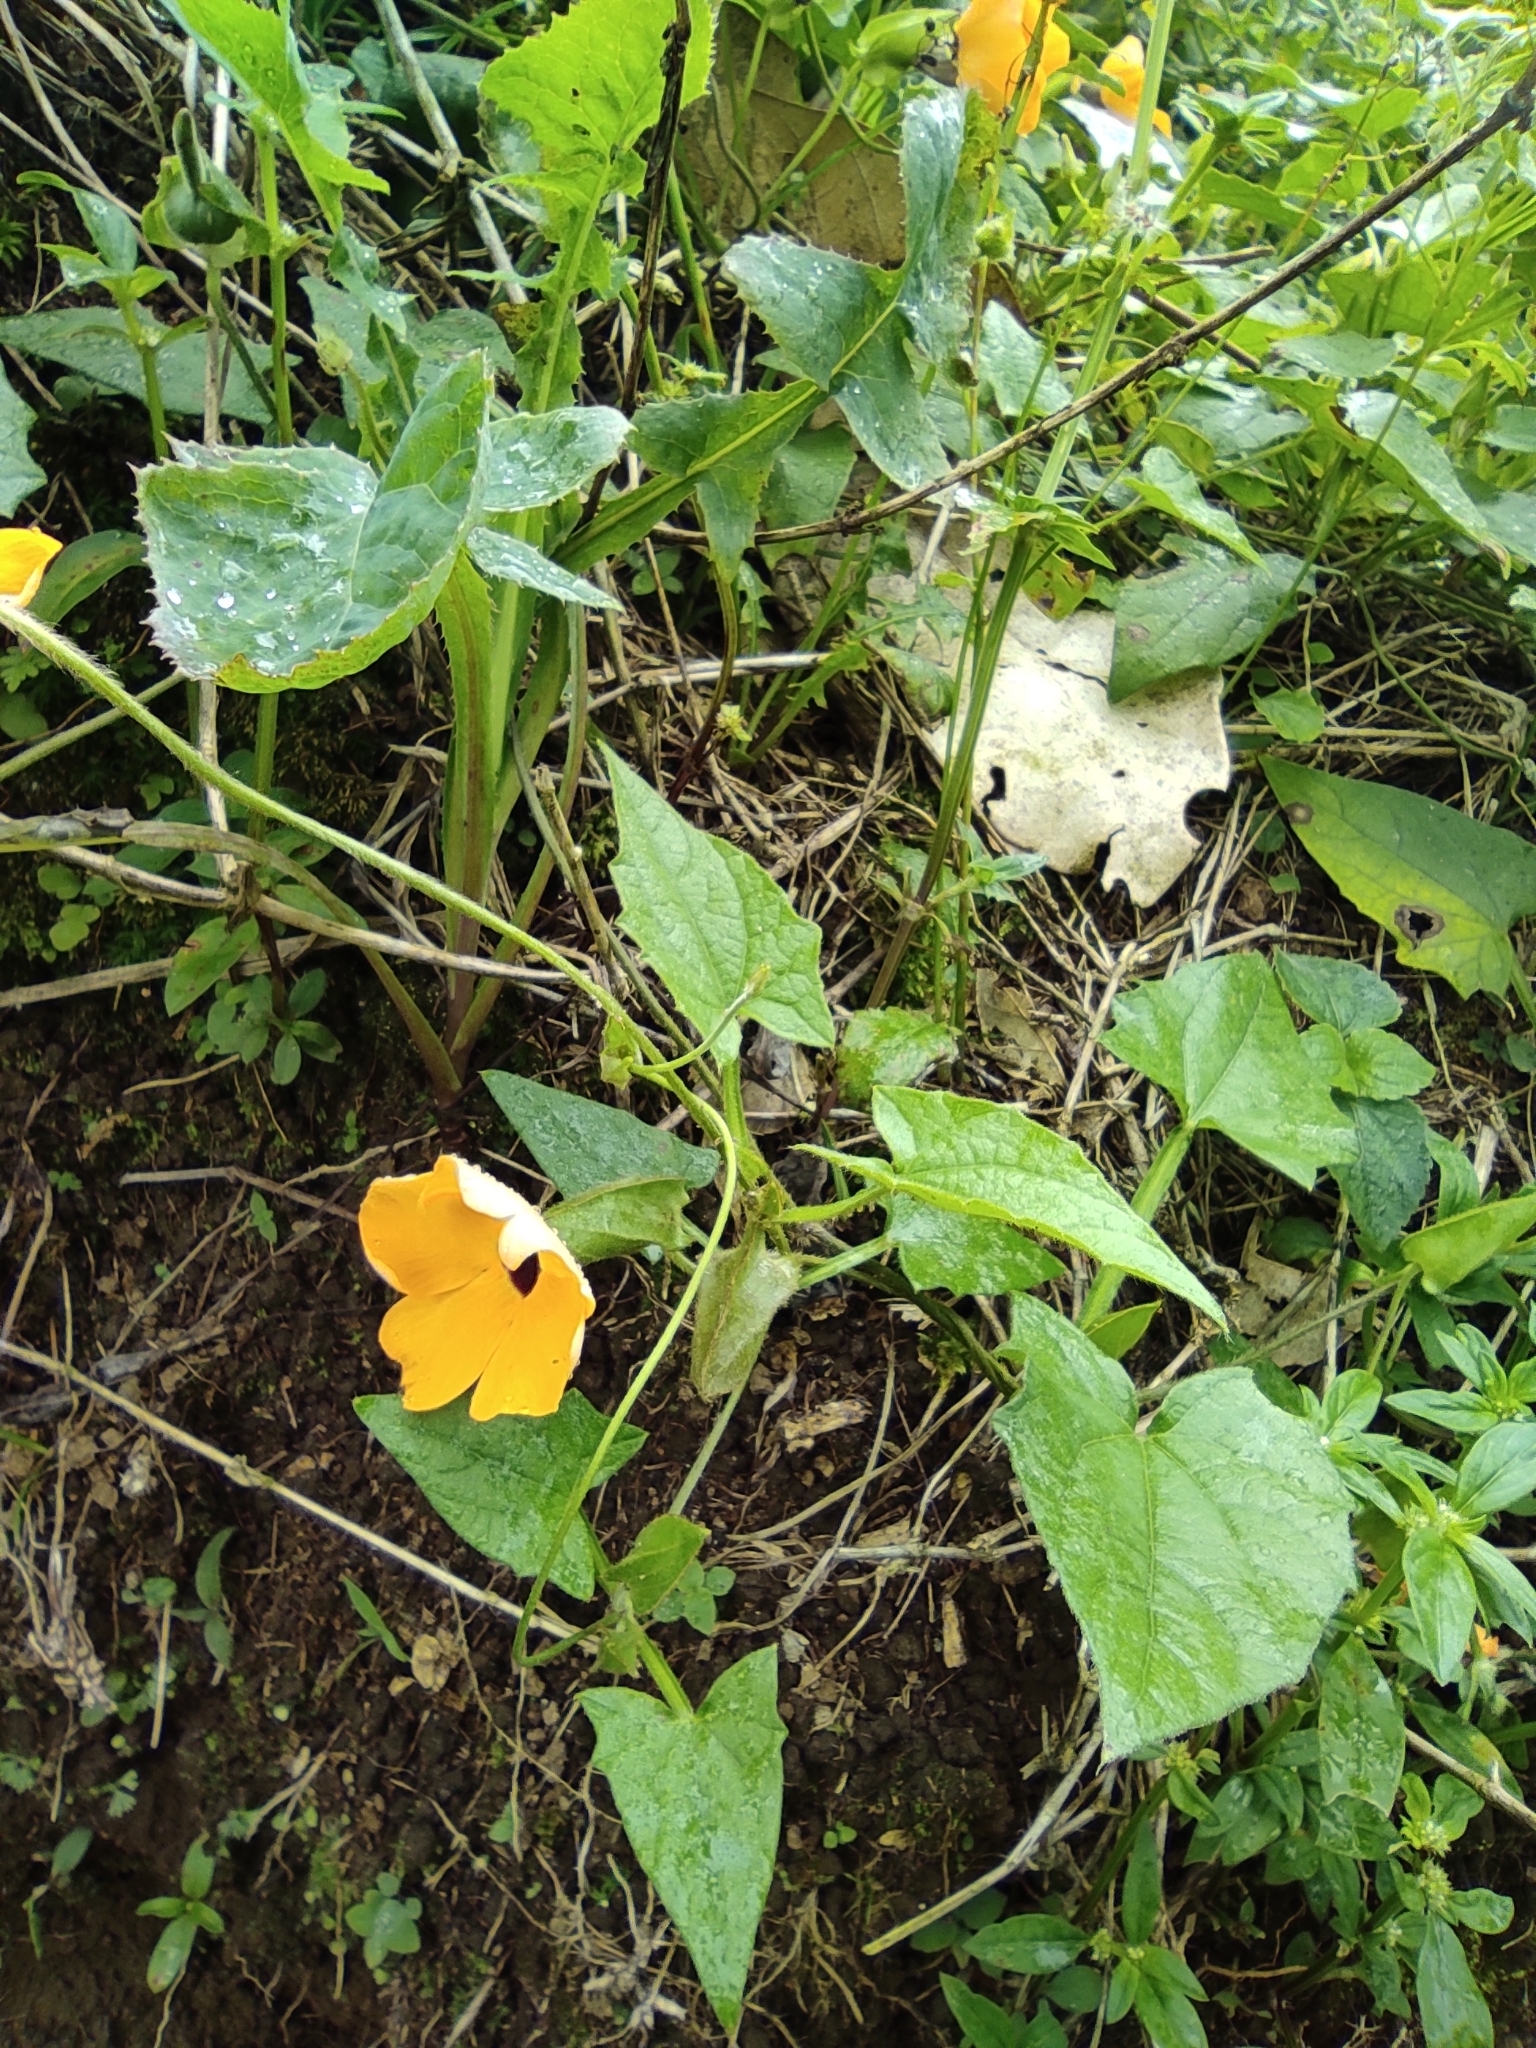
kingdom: Plantae
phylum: Tracheophyta
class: Magnoliopsida
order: Lamiales
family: Acanthaceae
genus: Thunbergia
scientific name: Thunbergia alata
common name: Blackeyed susan vine
